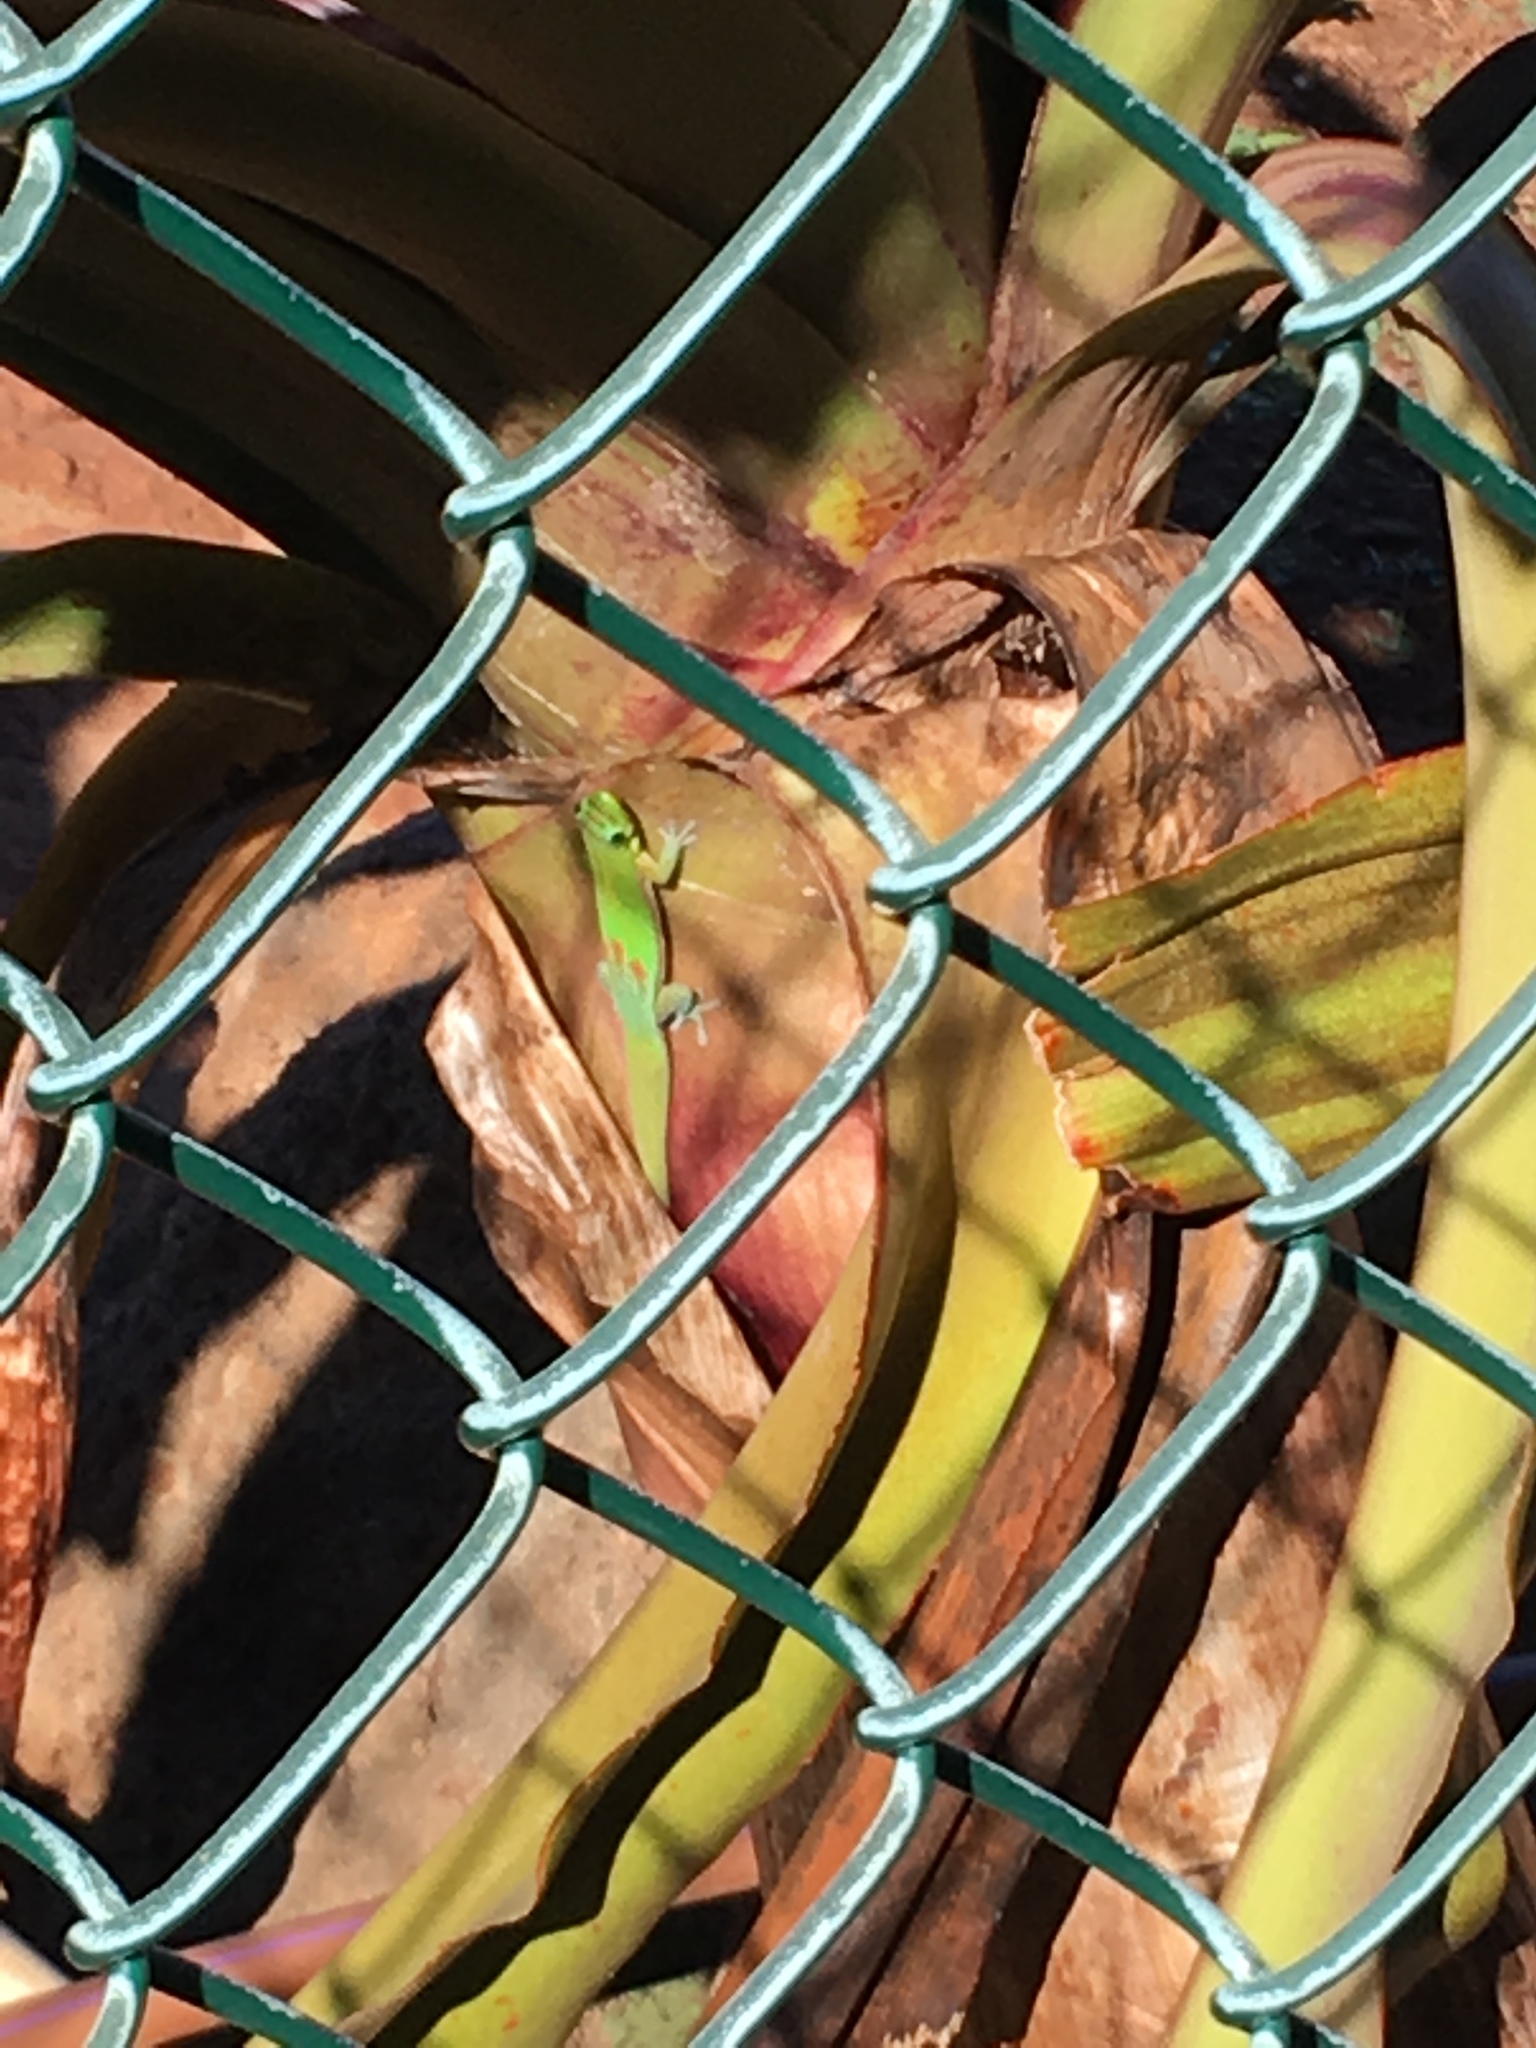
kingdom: Animalia
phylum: Chordata
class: Squamata
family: Gekkonidae
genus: Phelsuma
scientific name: Phelsuma laticauda
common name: Gold dust day gecko
